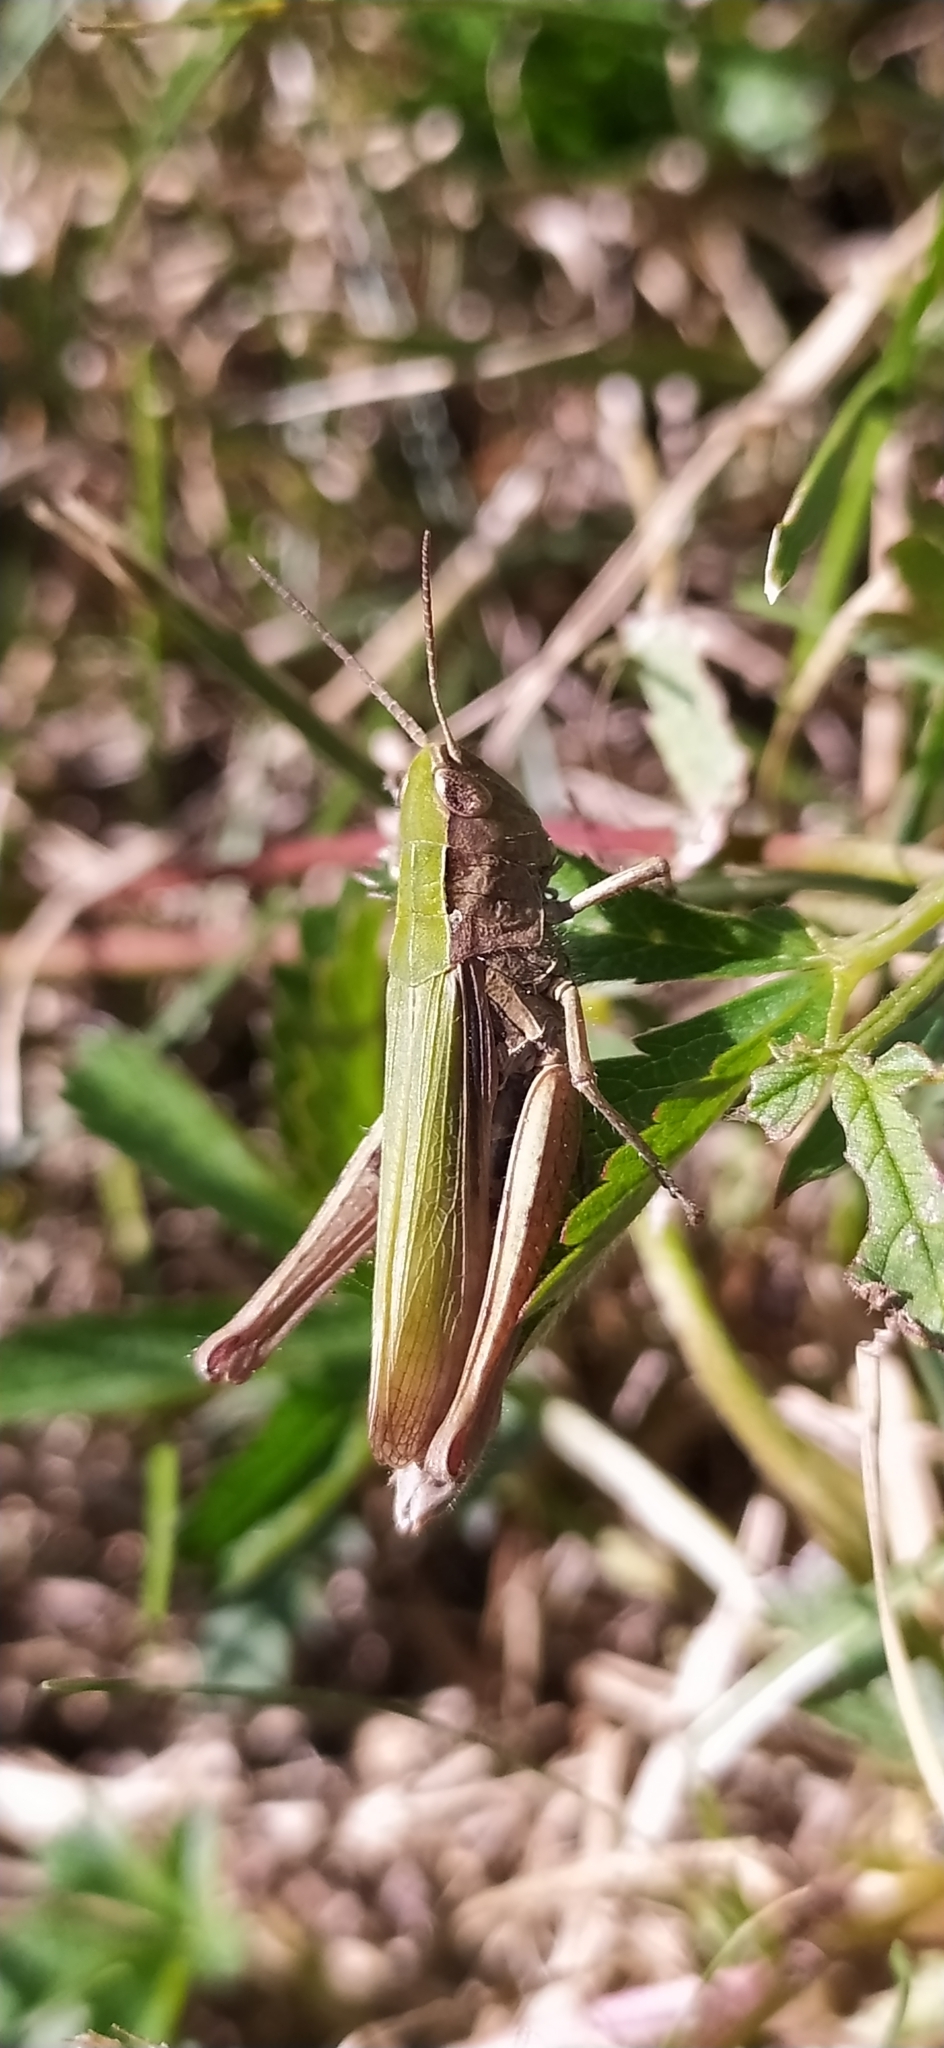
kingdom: Animalia
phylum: Arthropoda
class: Insecta
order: Orthoptera
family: Acrididae
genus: Chorthippus
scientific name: Chorthippus dorsatus
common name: Steppe grasshopper
